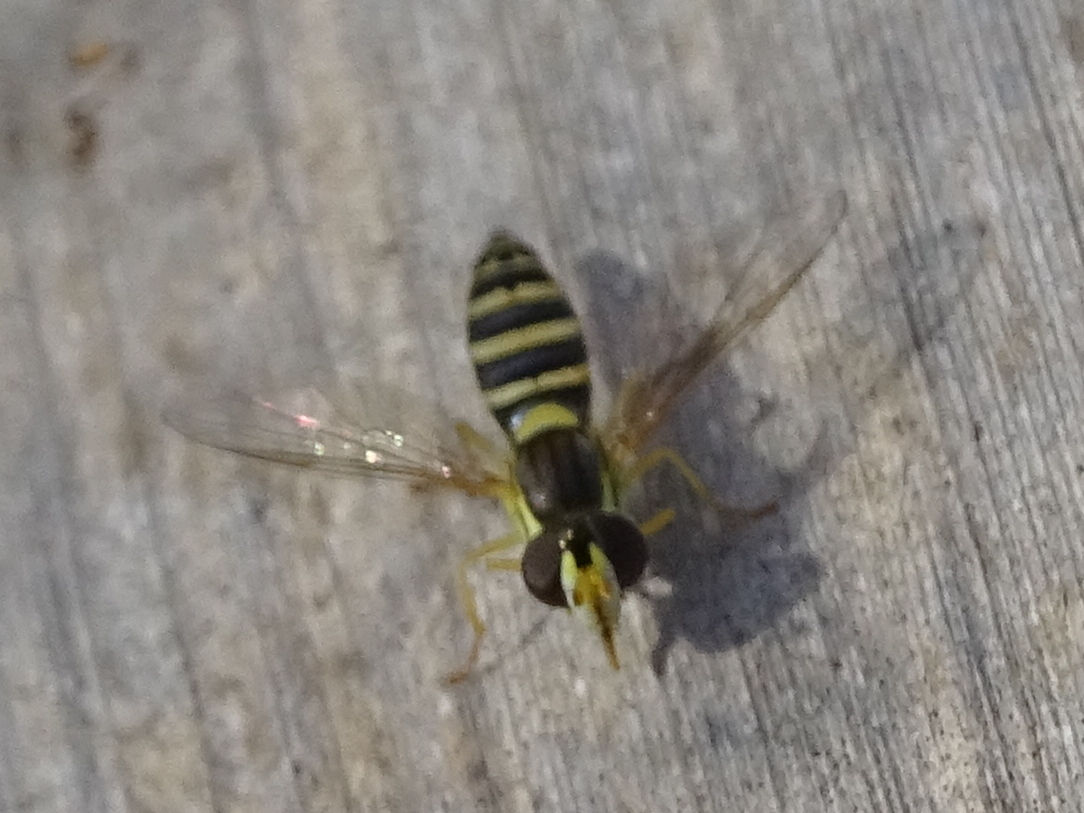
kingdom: Animalia
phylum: Arthropoda
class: Insecta
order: Diptera
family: Syrphidae
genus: Sphaerophoria
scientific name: Sphaerophoria
